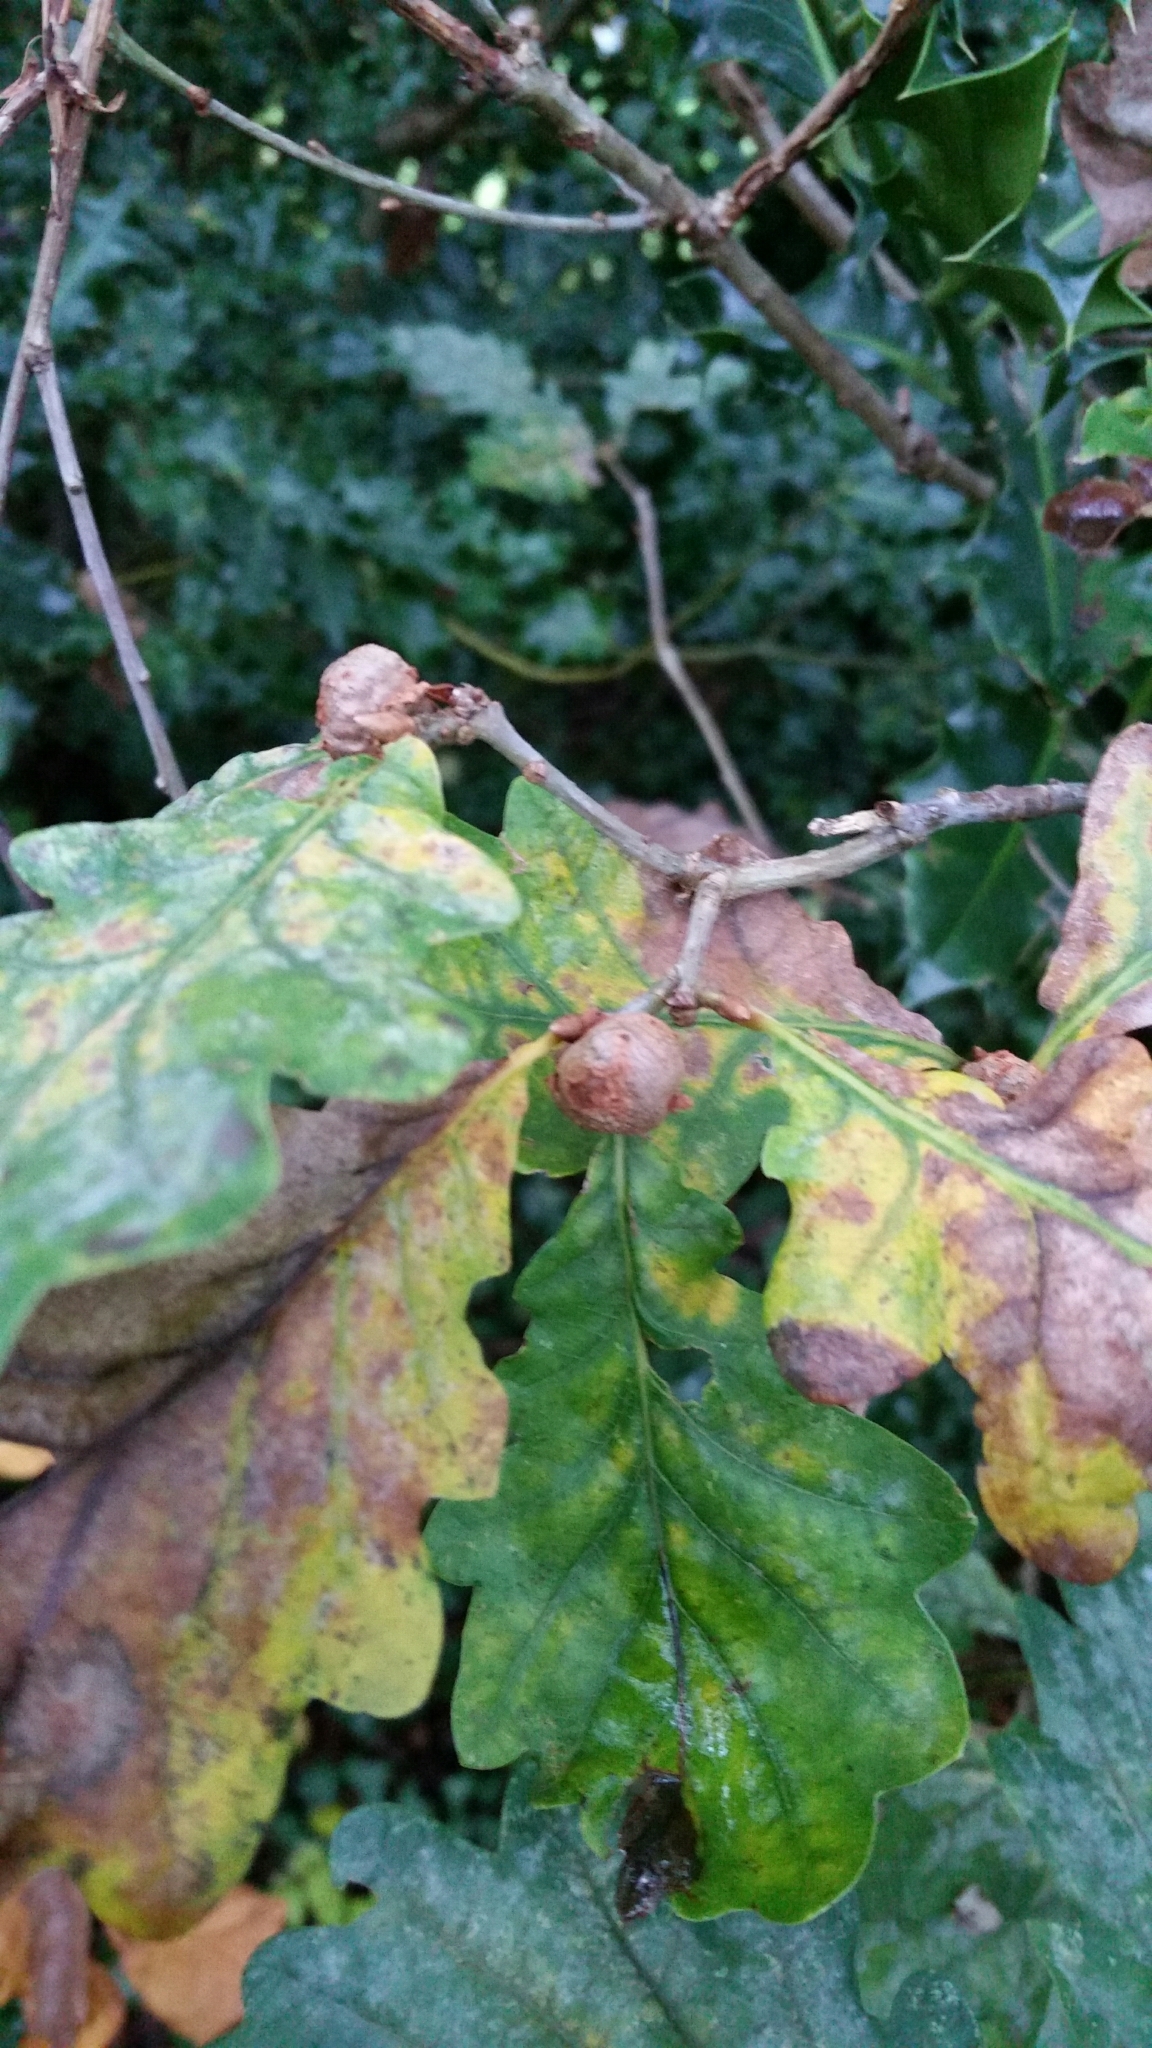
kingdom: Animalia
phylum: Arthropoda
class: Insecta
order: Hymenoptera
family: Cynipidae
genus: Andricus
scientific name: Andricus lignicolus
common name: Cola-nut gall
